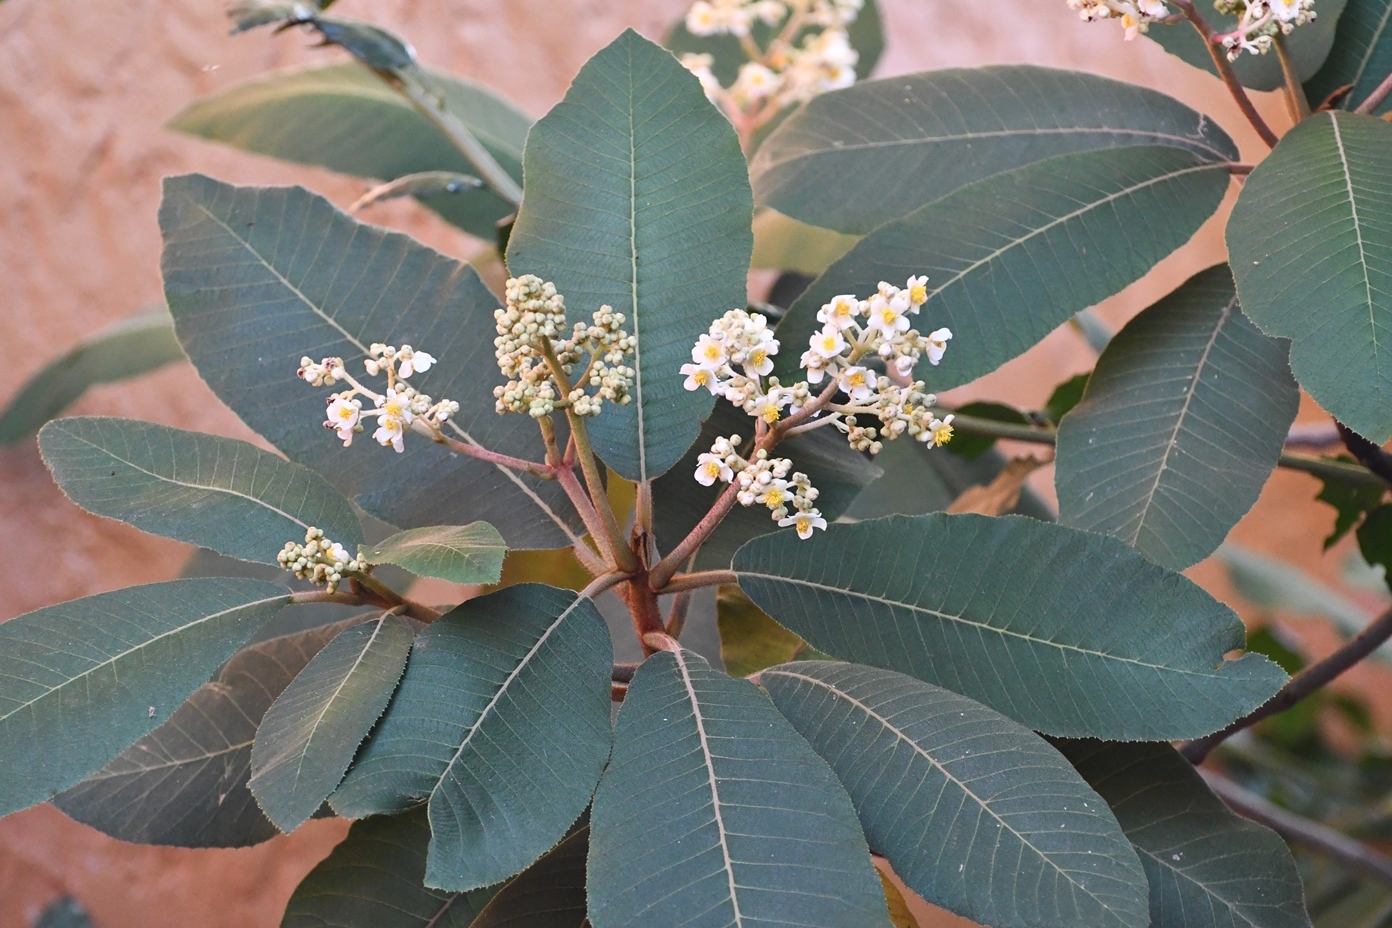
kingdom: Plantae
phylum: Tracheophyta
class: Magnoliopsida
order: Ericales
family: Actinidiaceae
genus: Saurauia
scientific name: Saurauia scabrida
